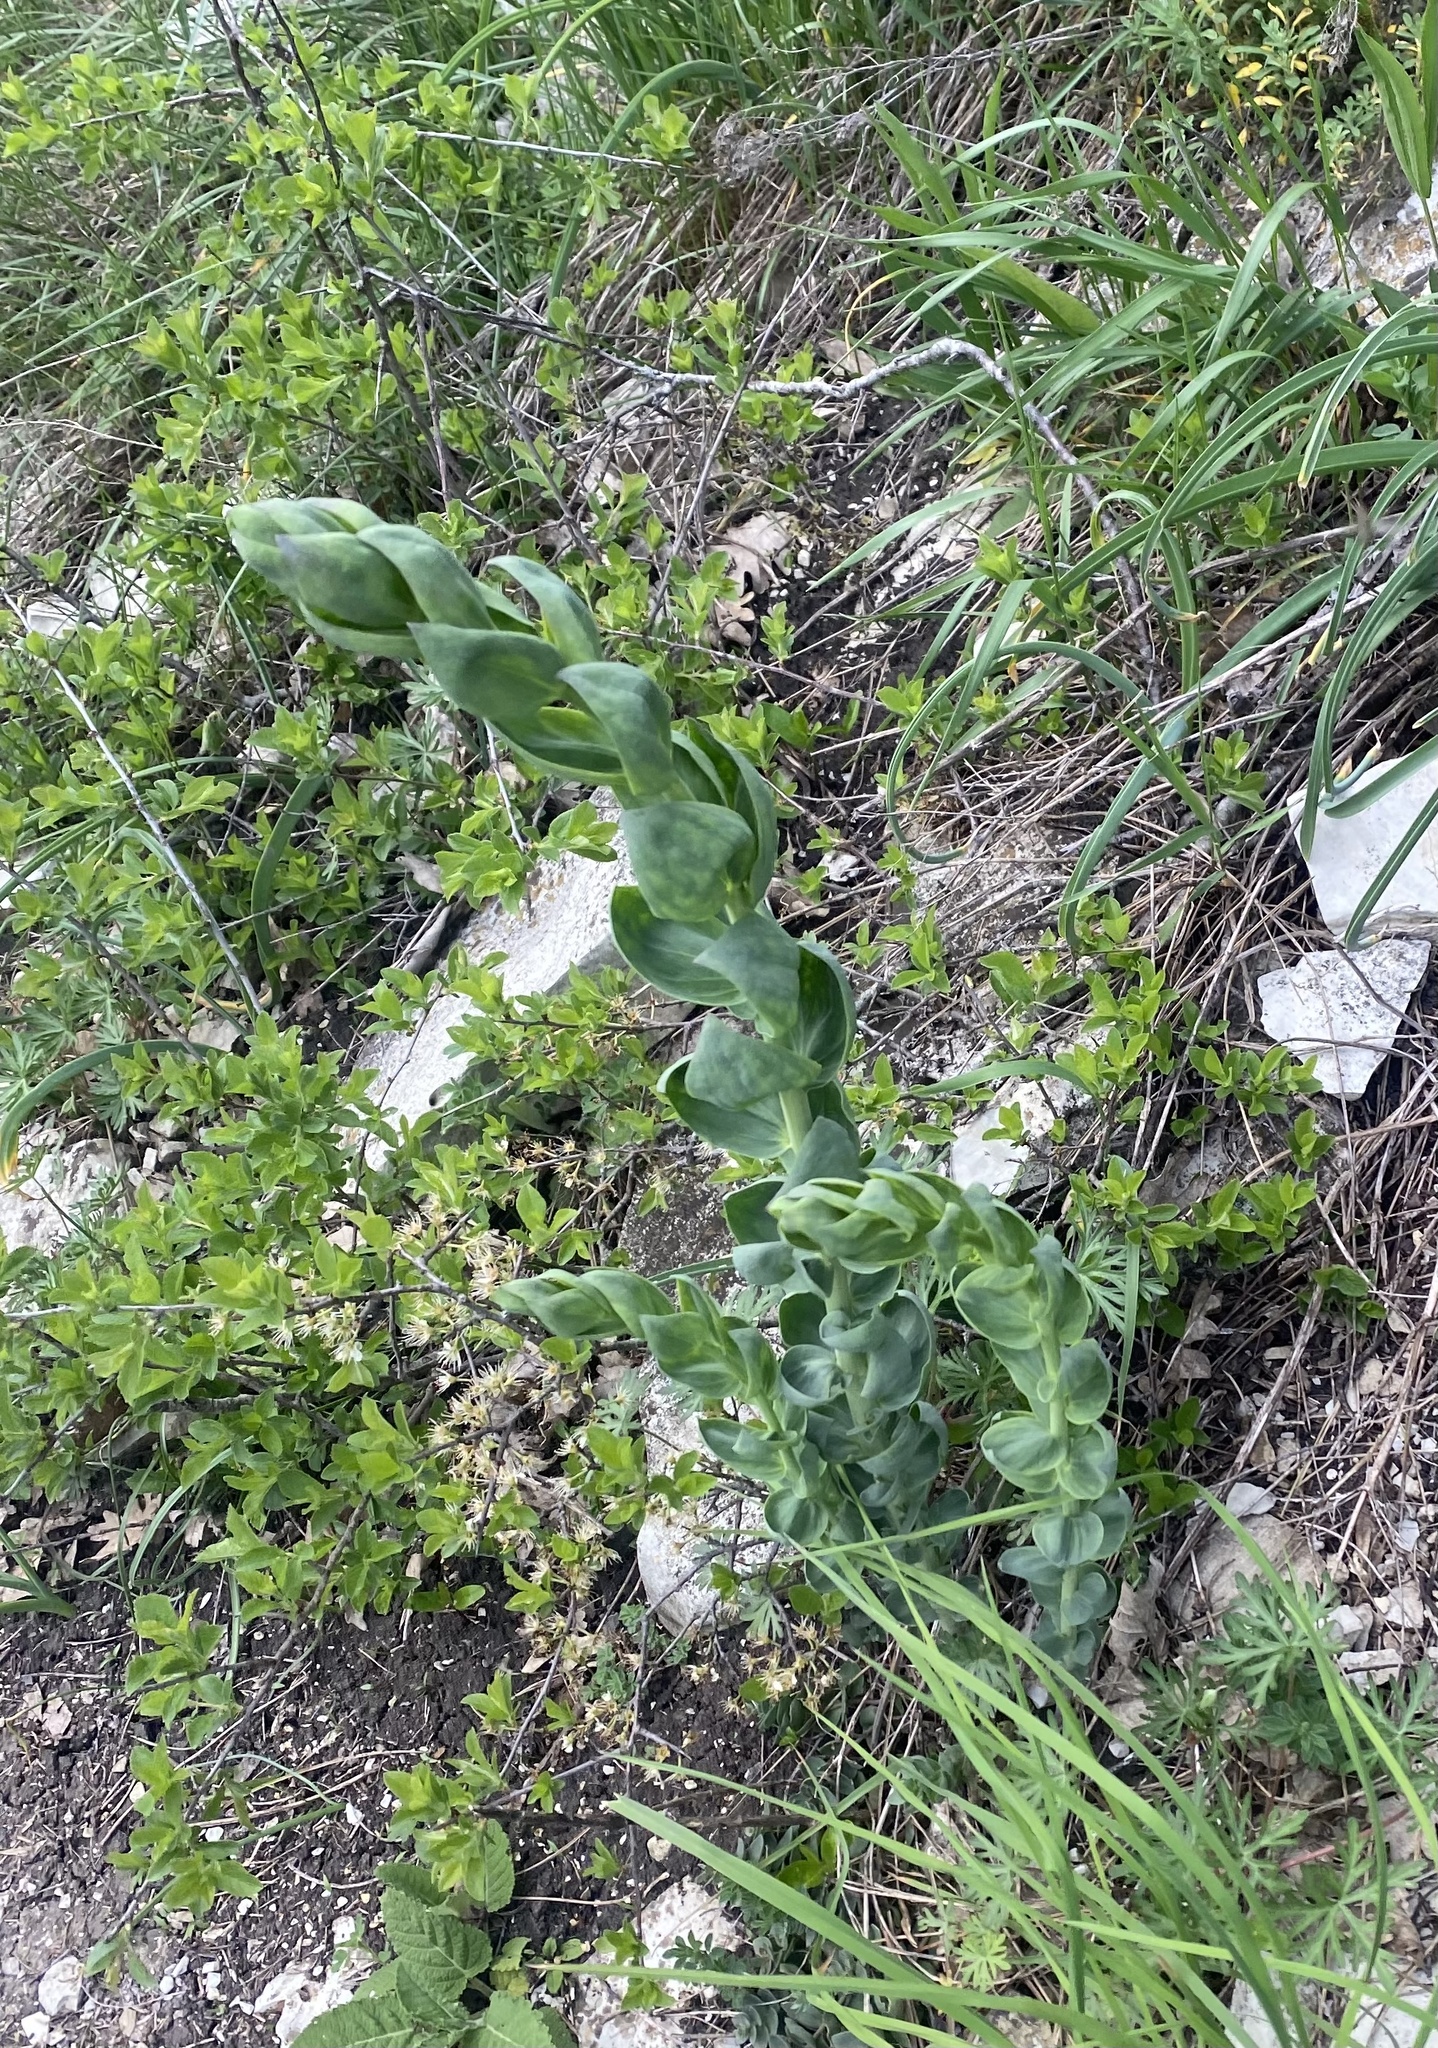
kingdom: Plantae
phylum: Tracheophyta
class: Magnoliopsida
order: Lamiales
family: Plantaginaceae
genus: Linaria
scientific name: Linaria genistifolia
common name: Broomleaf toadflax
